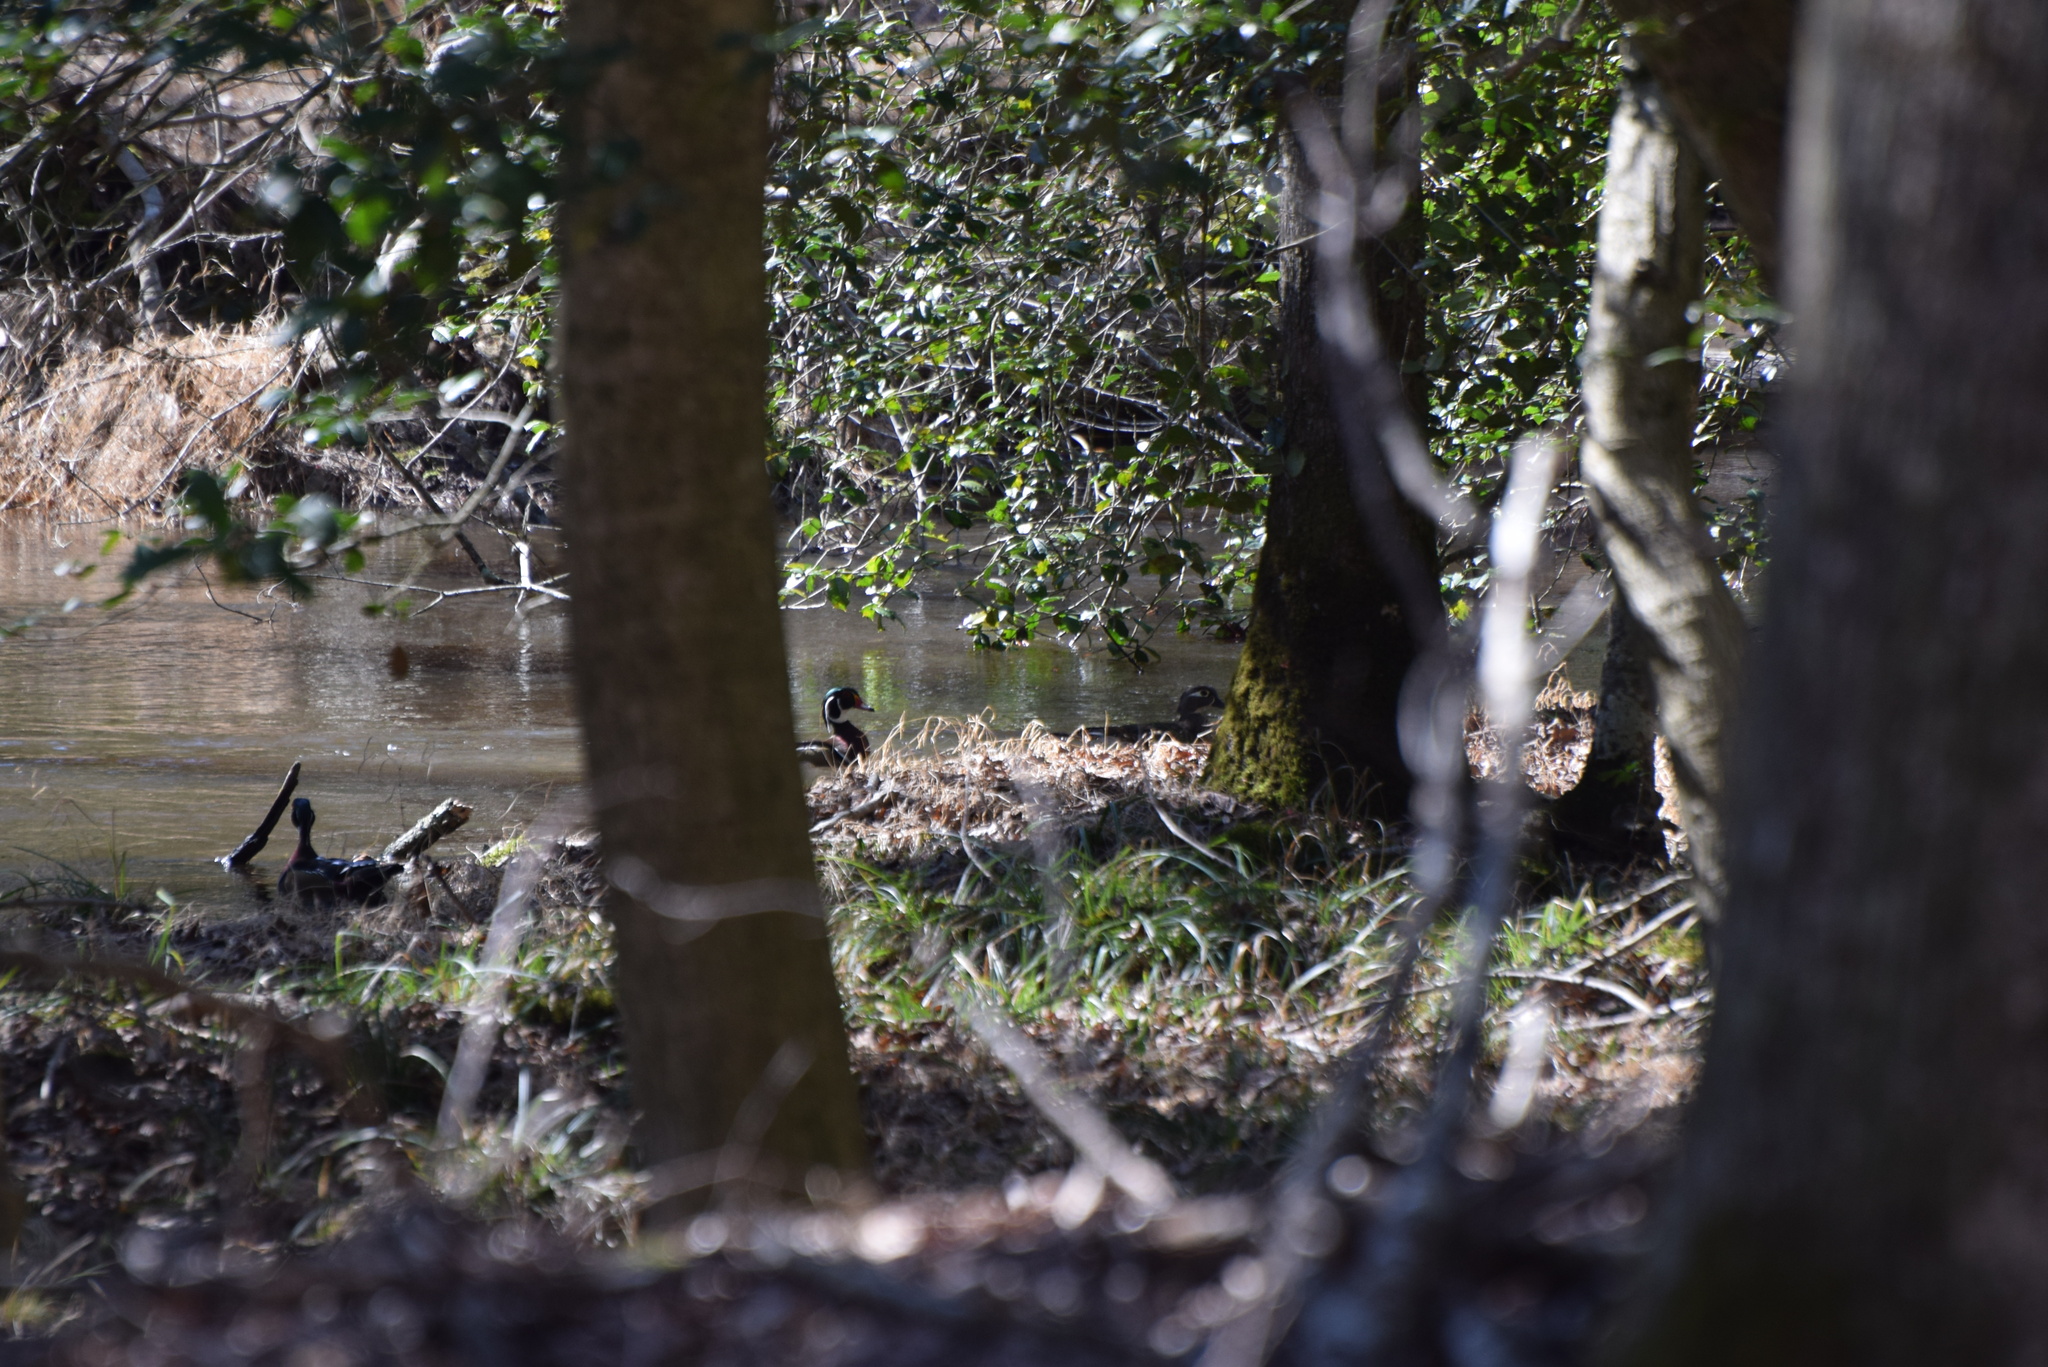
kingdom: Animalia
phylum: Chordata
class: Aves
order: Anseriformes
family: Anatidae
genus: Aix
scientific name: Aix sponsa
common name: Wood duck
